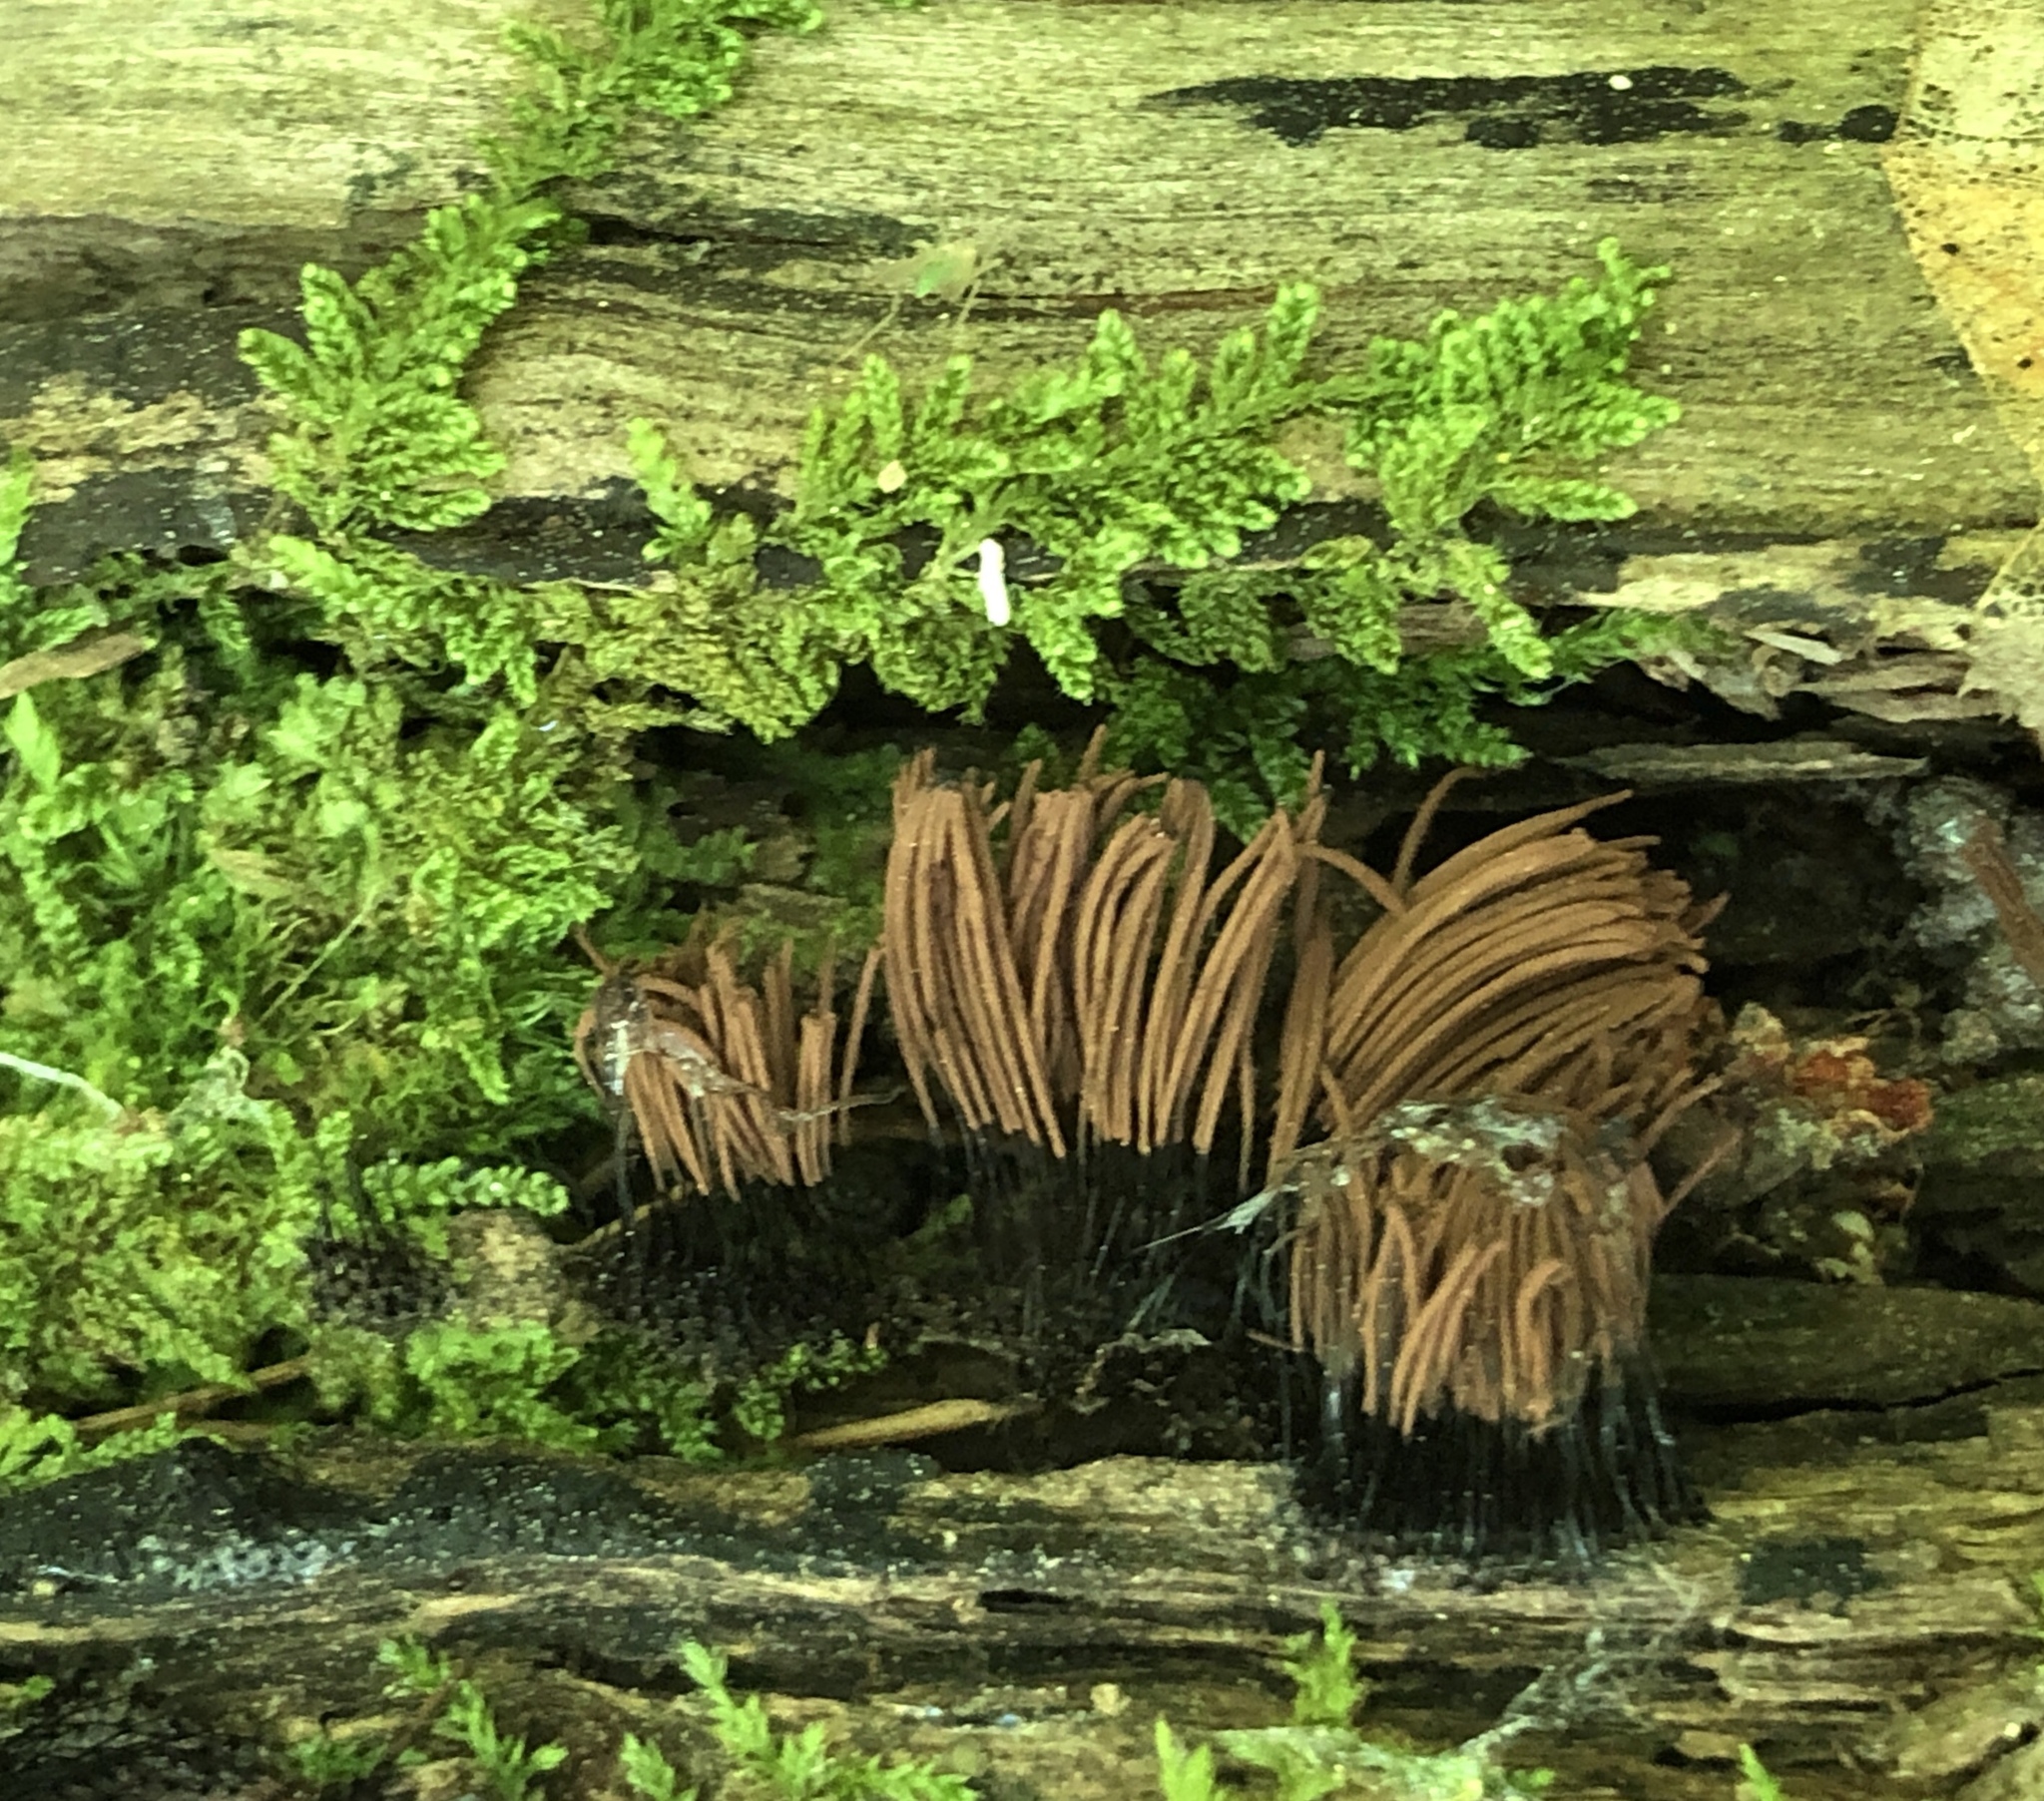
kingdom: Protozoa
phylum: Mycetozoa
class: Myxomycetes
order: Stemonitidales
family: Stemonitidaceae
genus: Stemonitis
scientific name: Stemonitis
